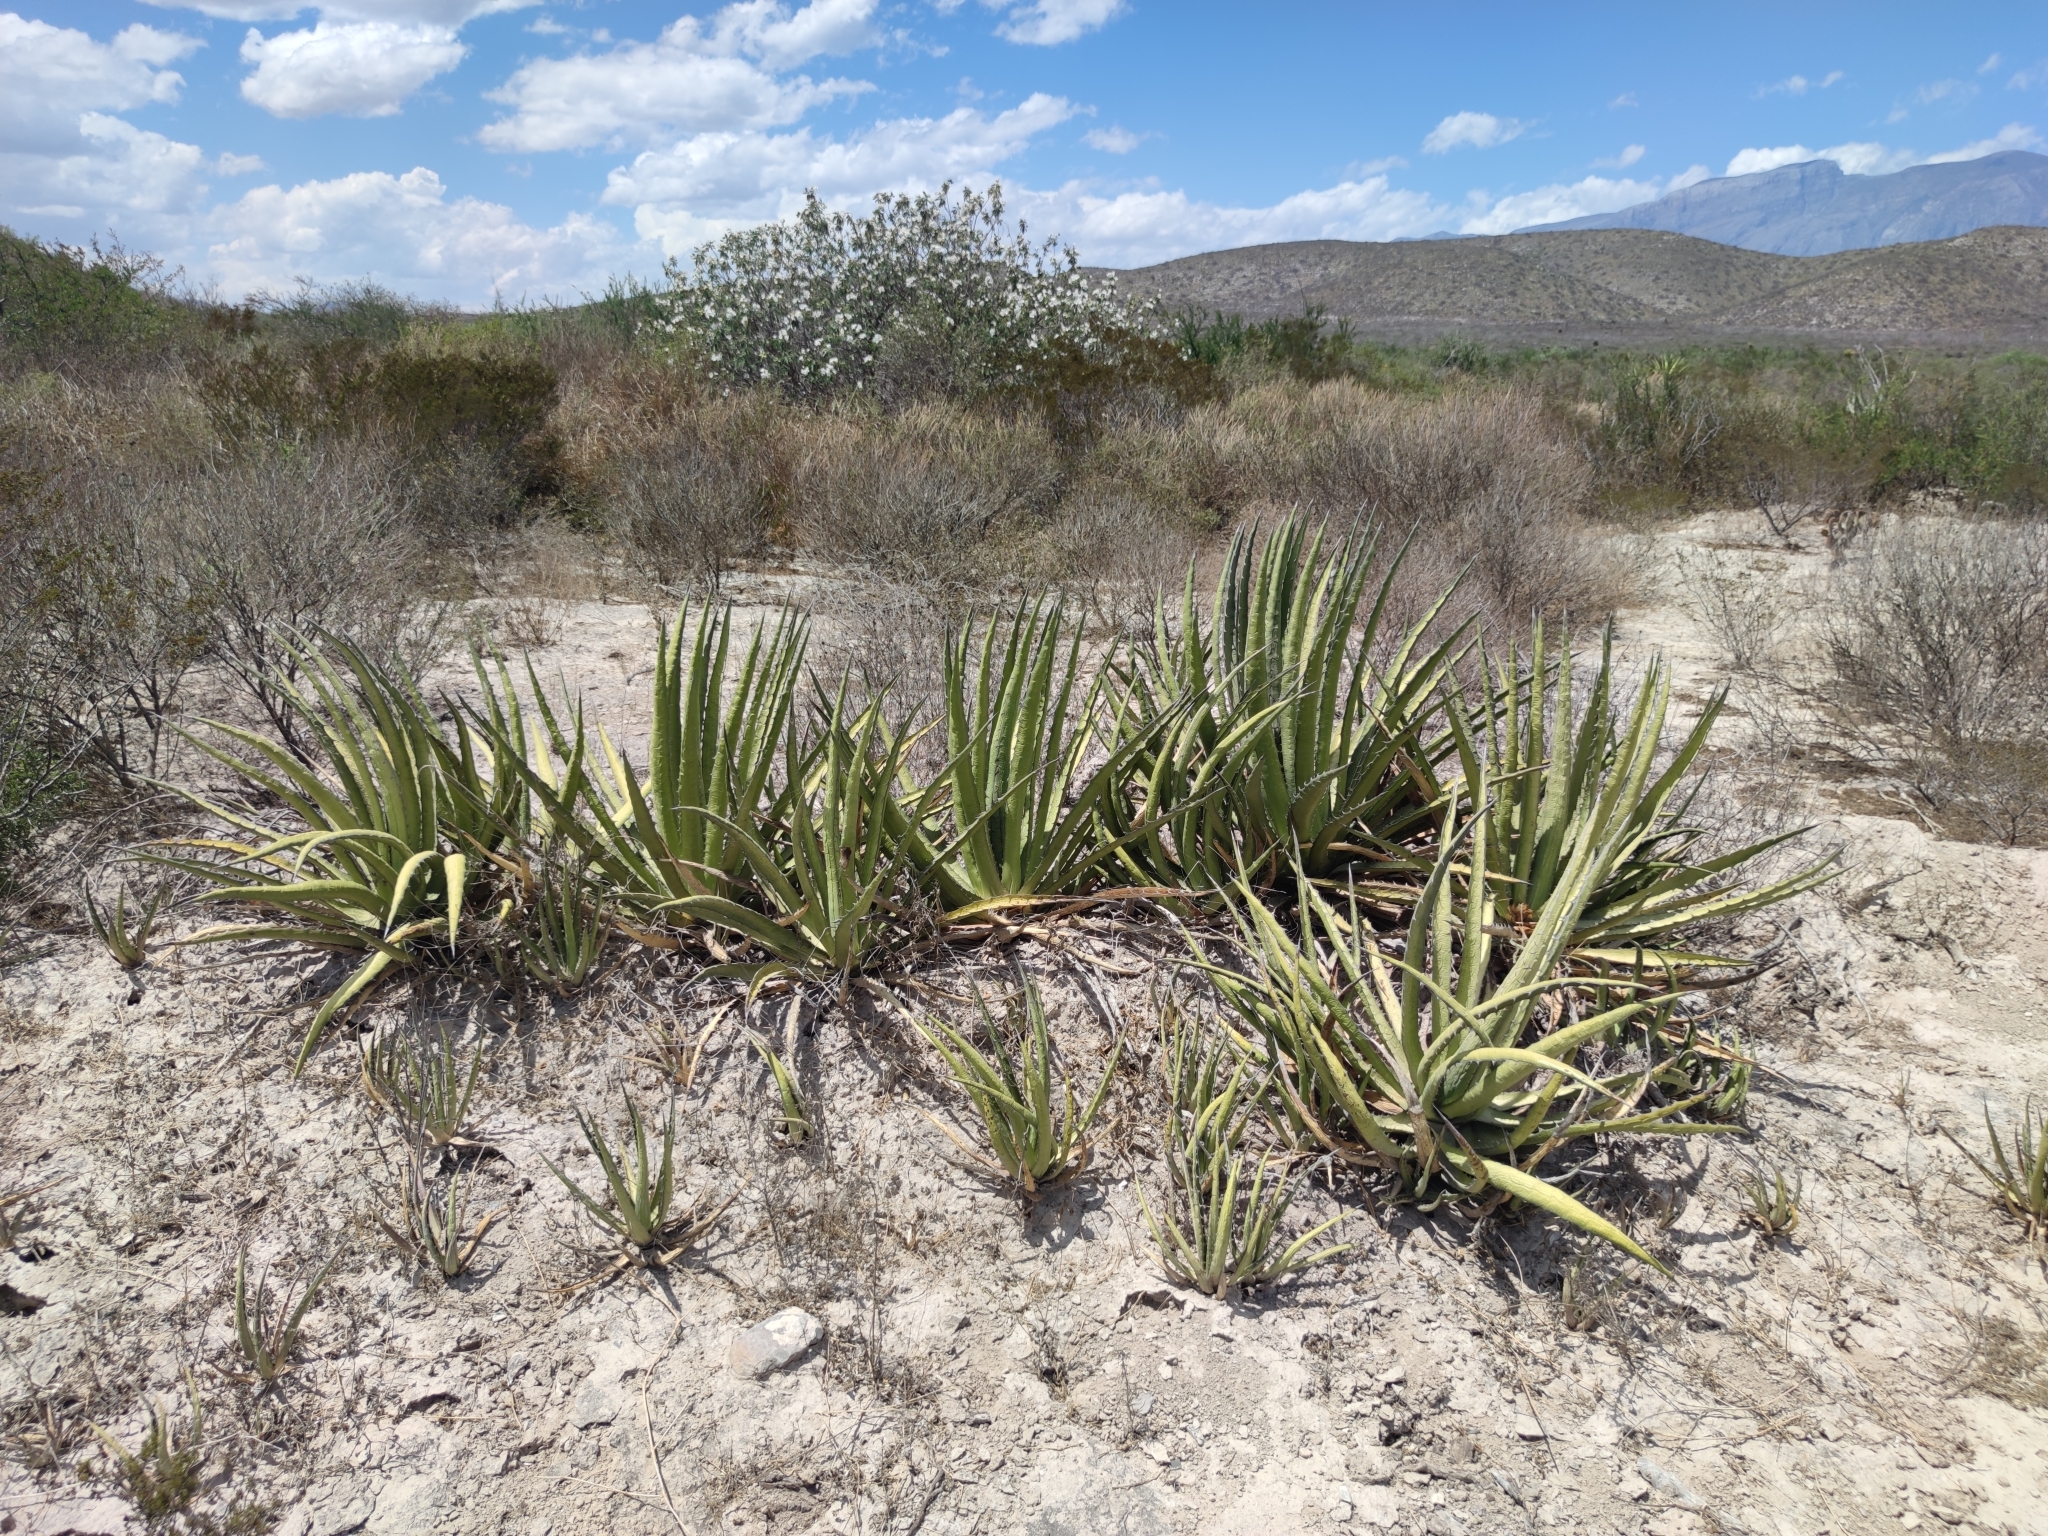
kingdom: Plantae
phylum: Tracheophyta
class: Liliopsida
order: Asparagales
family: Asparagaceae
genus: Agave
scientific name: Agave lechuguilla
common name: Lecheguilla agave
